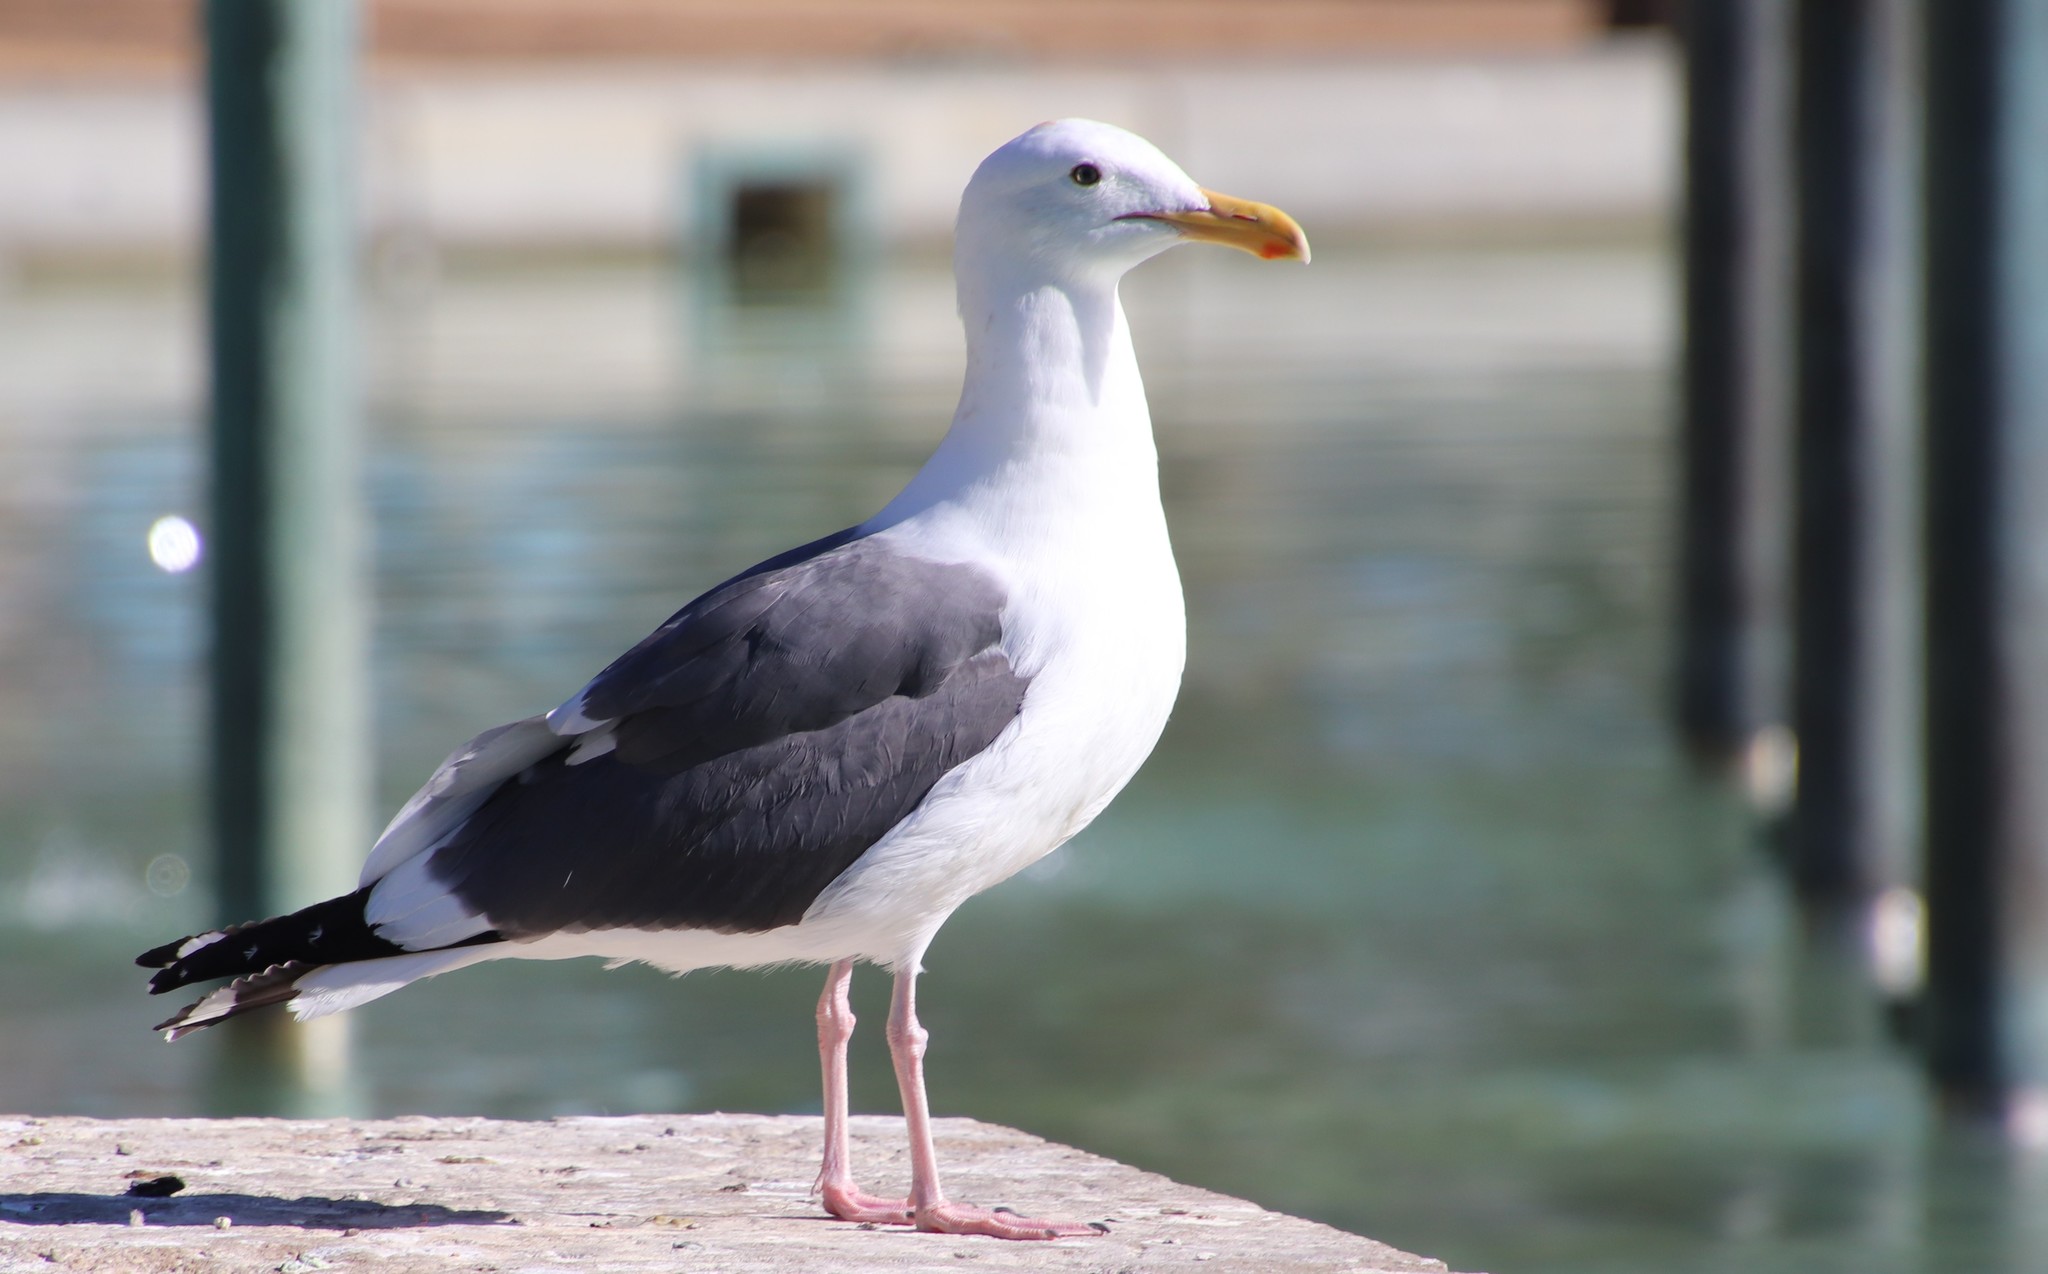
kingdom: Animalia
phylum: Chordata
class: Aves
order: Charadriiformes
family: Laridae
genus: Larus
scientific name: Larus occidentalis
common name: Western gull
